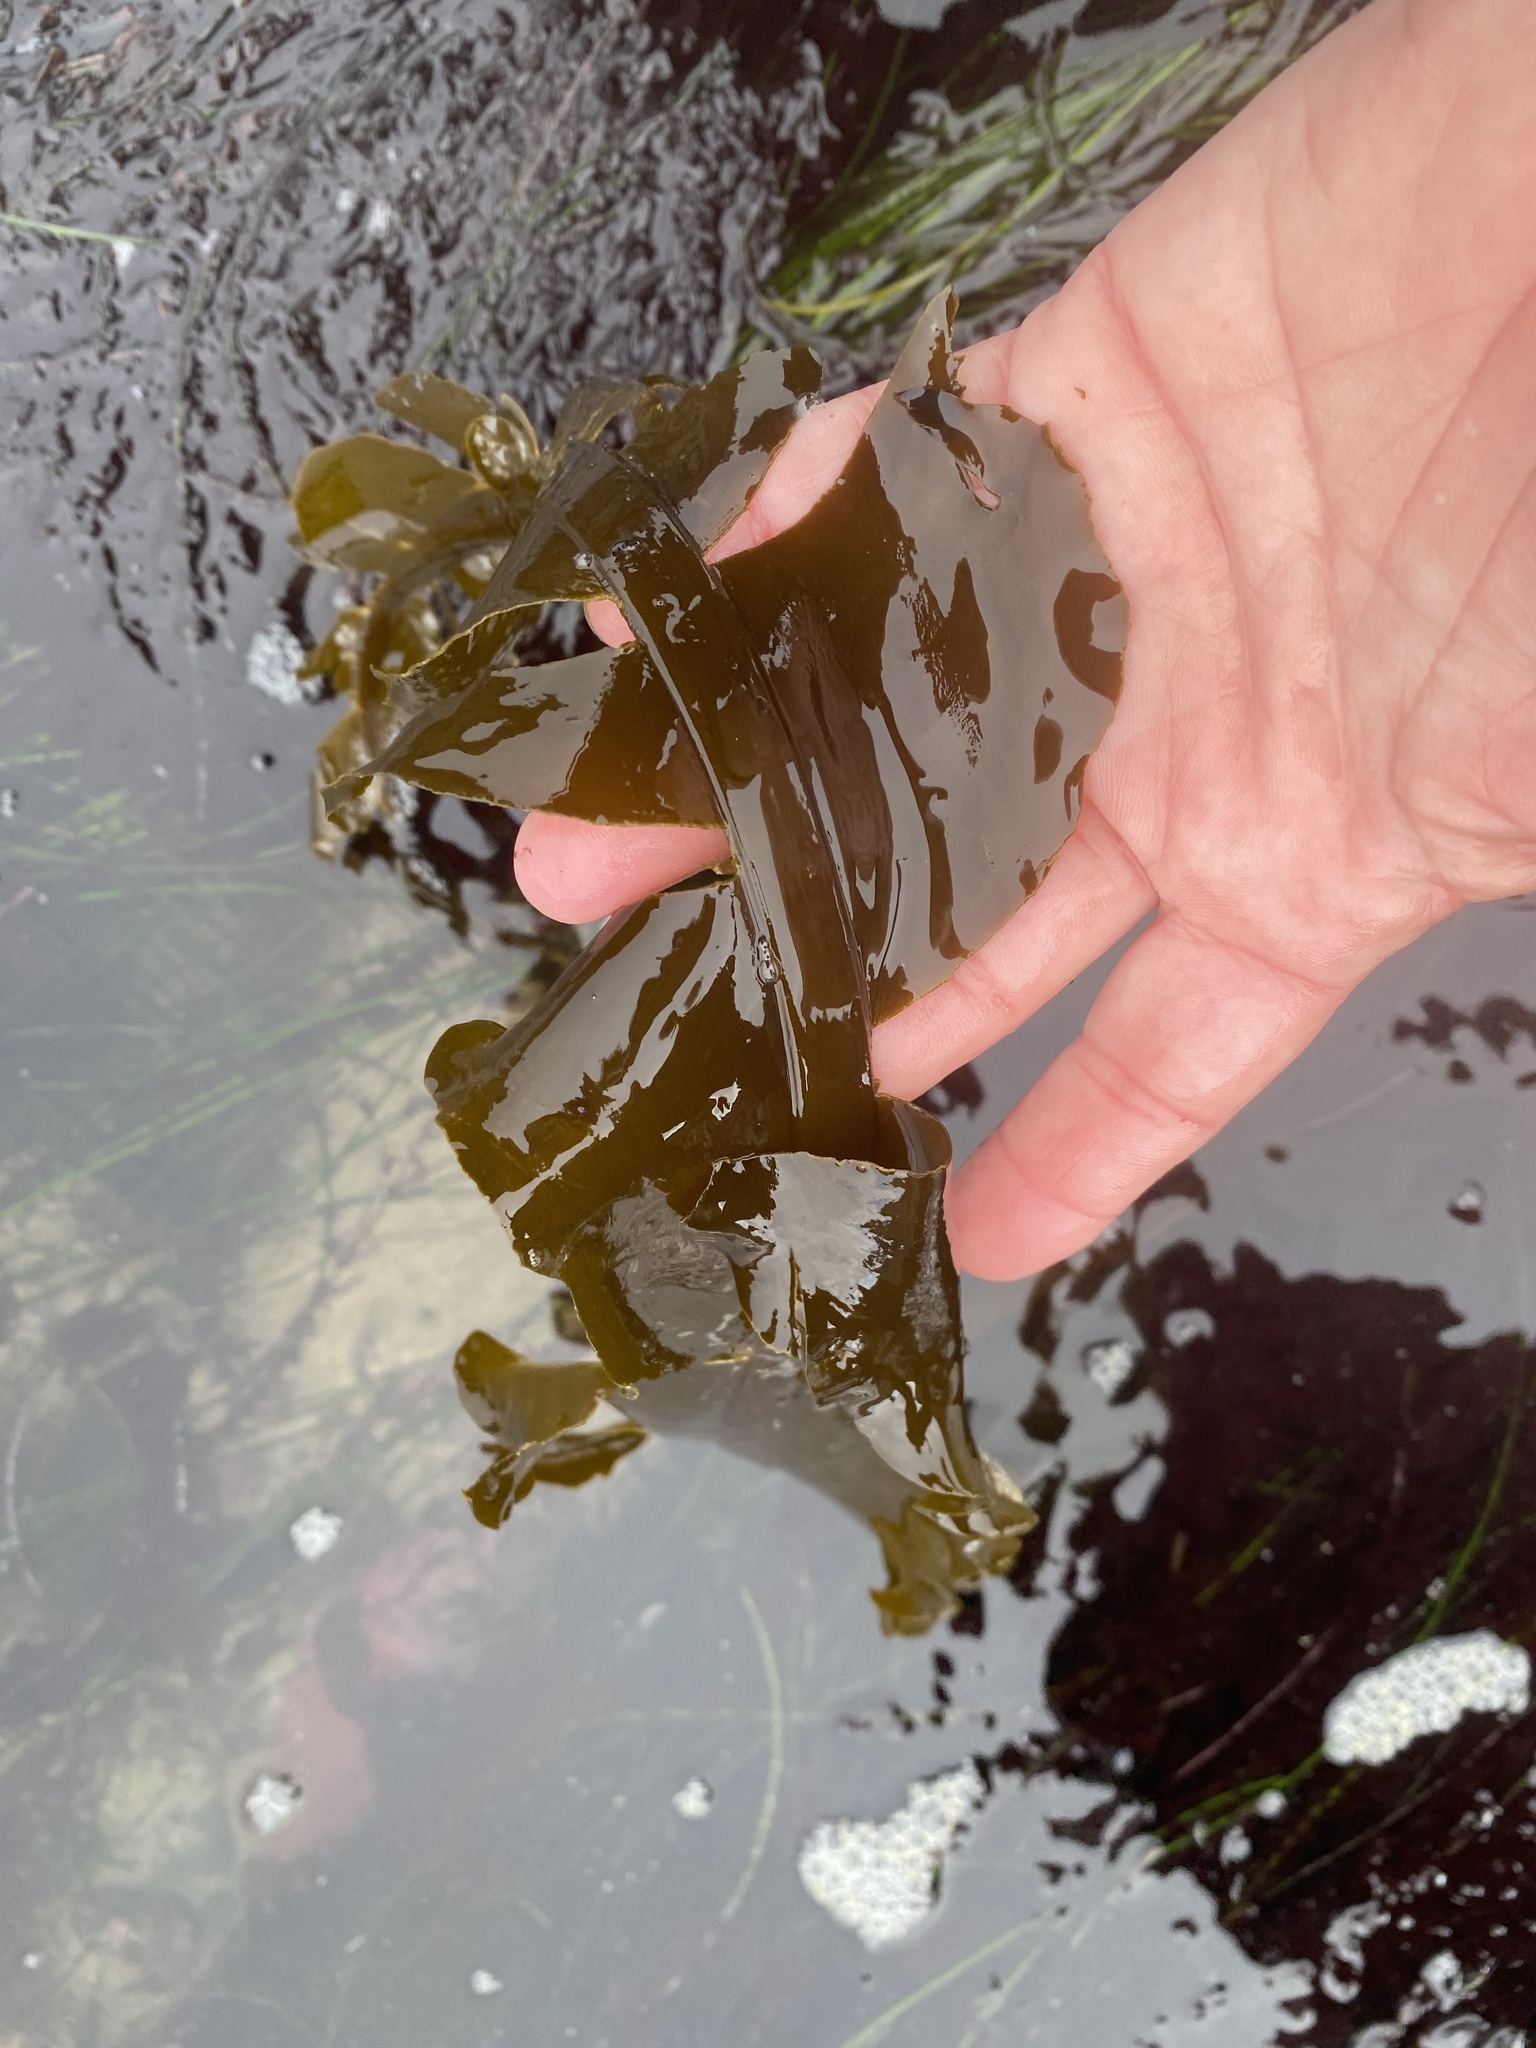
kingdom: Chromista
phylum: Ochrophyta
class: Phaeophyceae
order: Laminariales
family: Alariaceae
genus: Alaria
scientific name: Alaria marginata
